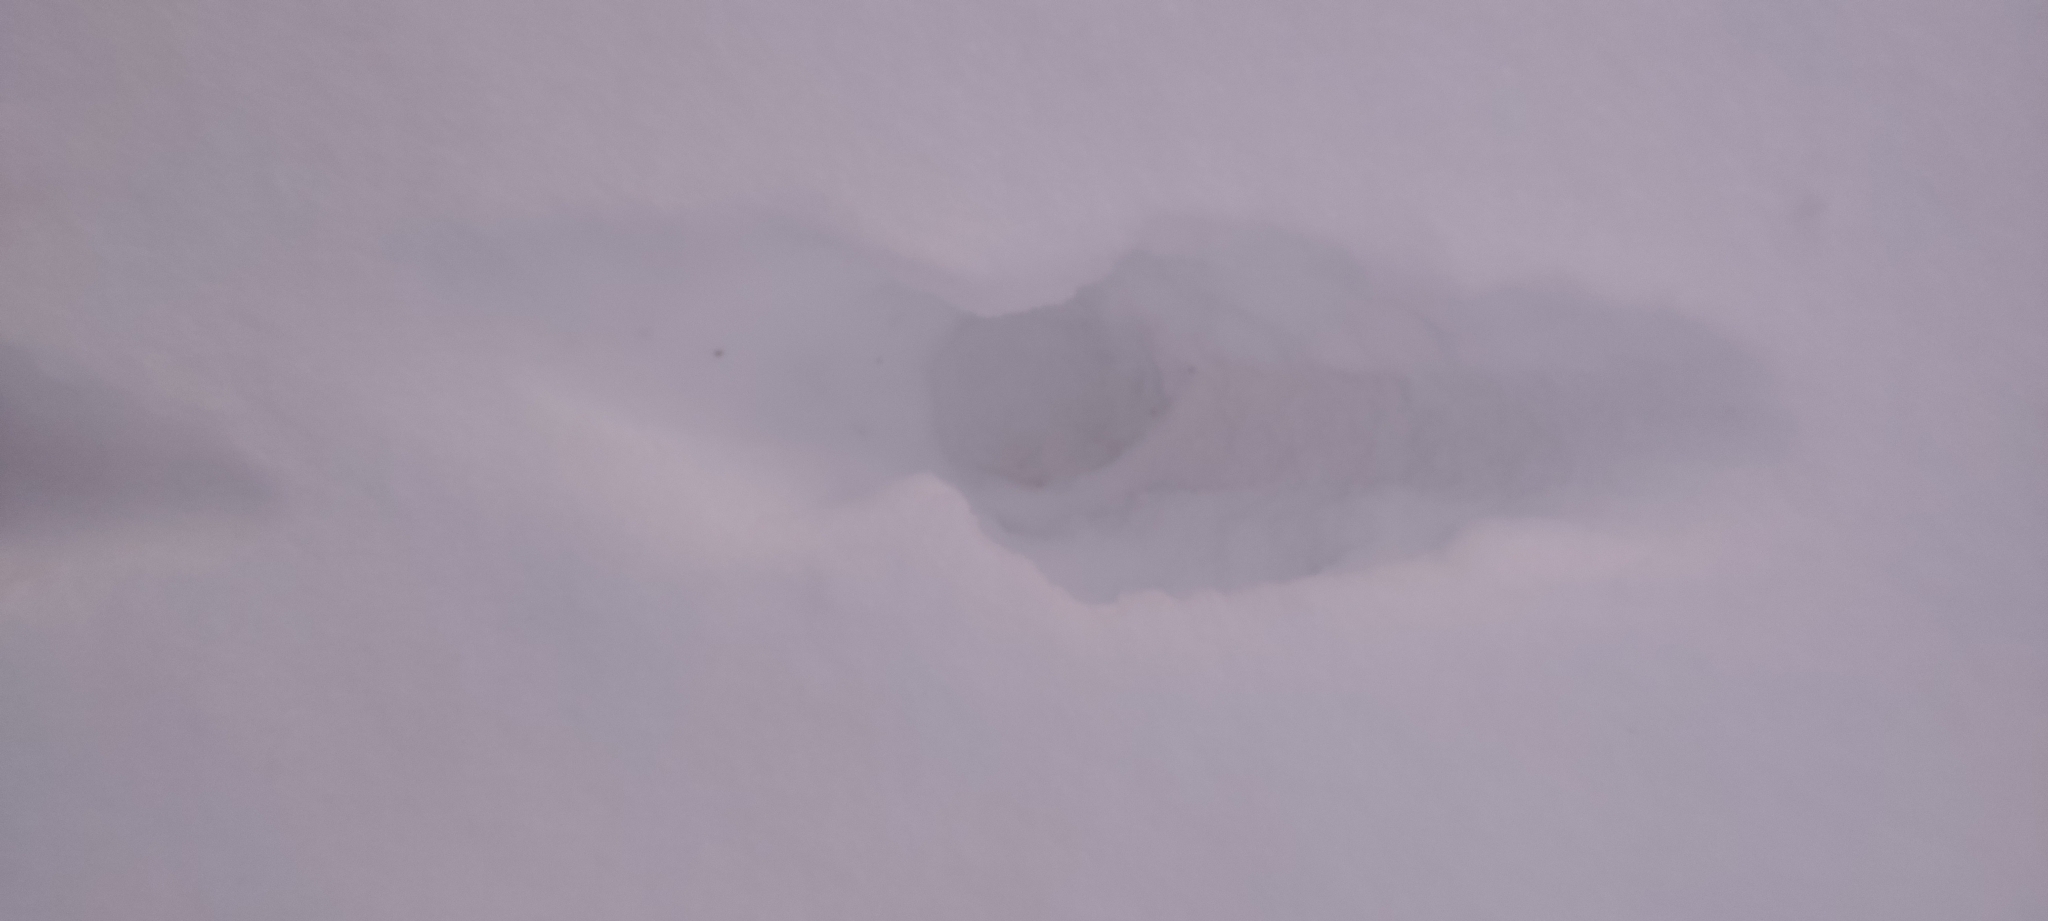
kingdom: Animalia
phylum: Chordata
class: Mammalia
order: Carnivora
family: Canidae
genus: Vulpes
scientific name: Vulpes vulpes
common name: Red fox
